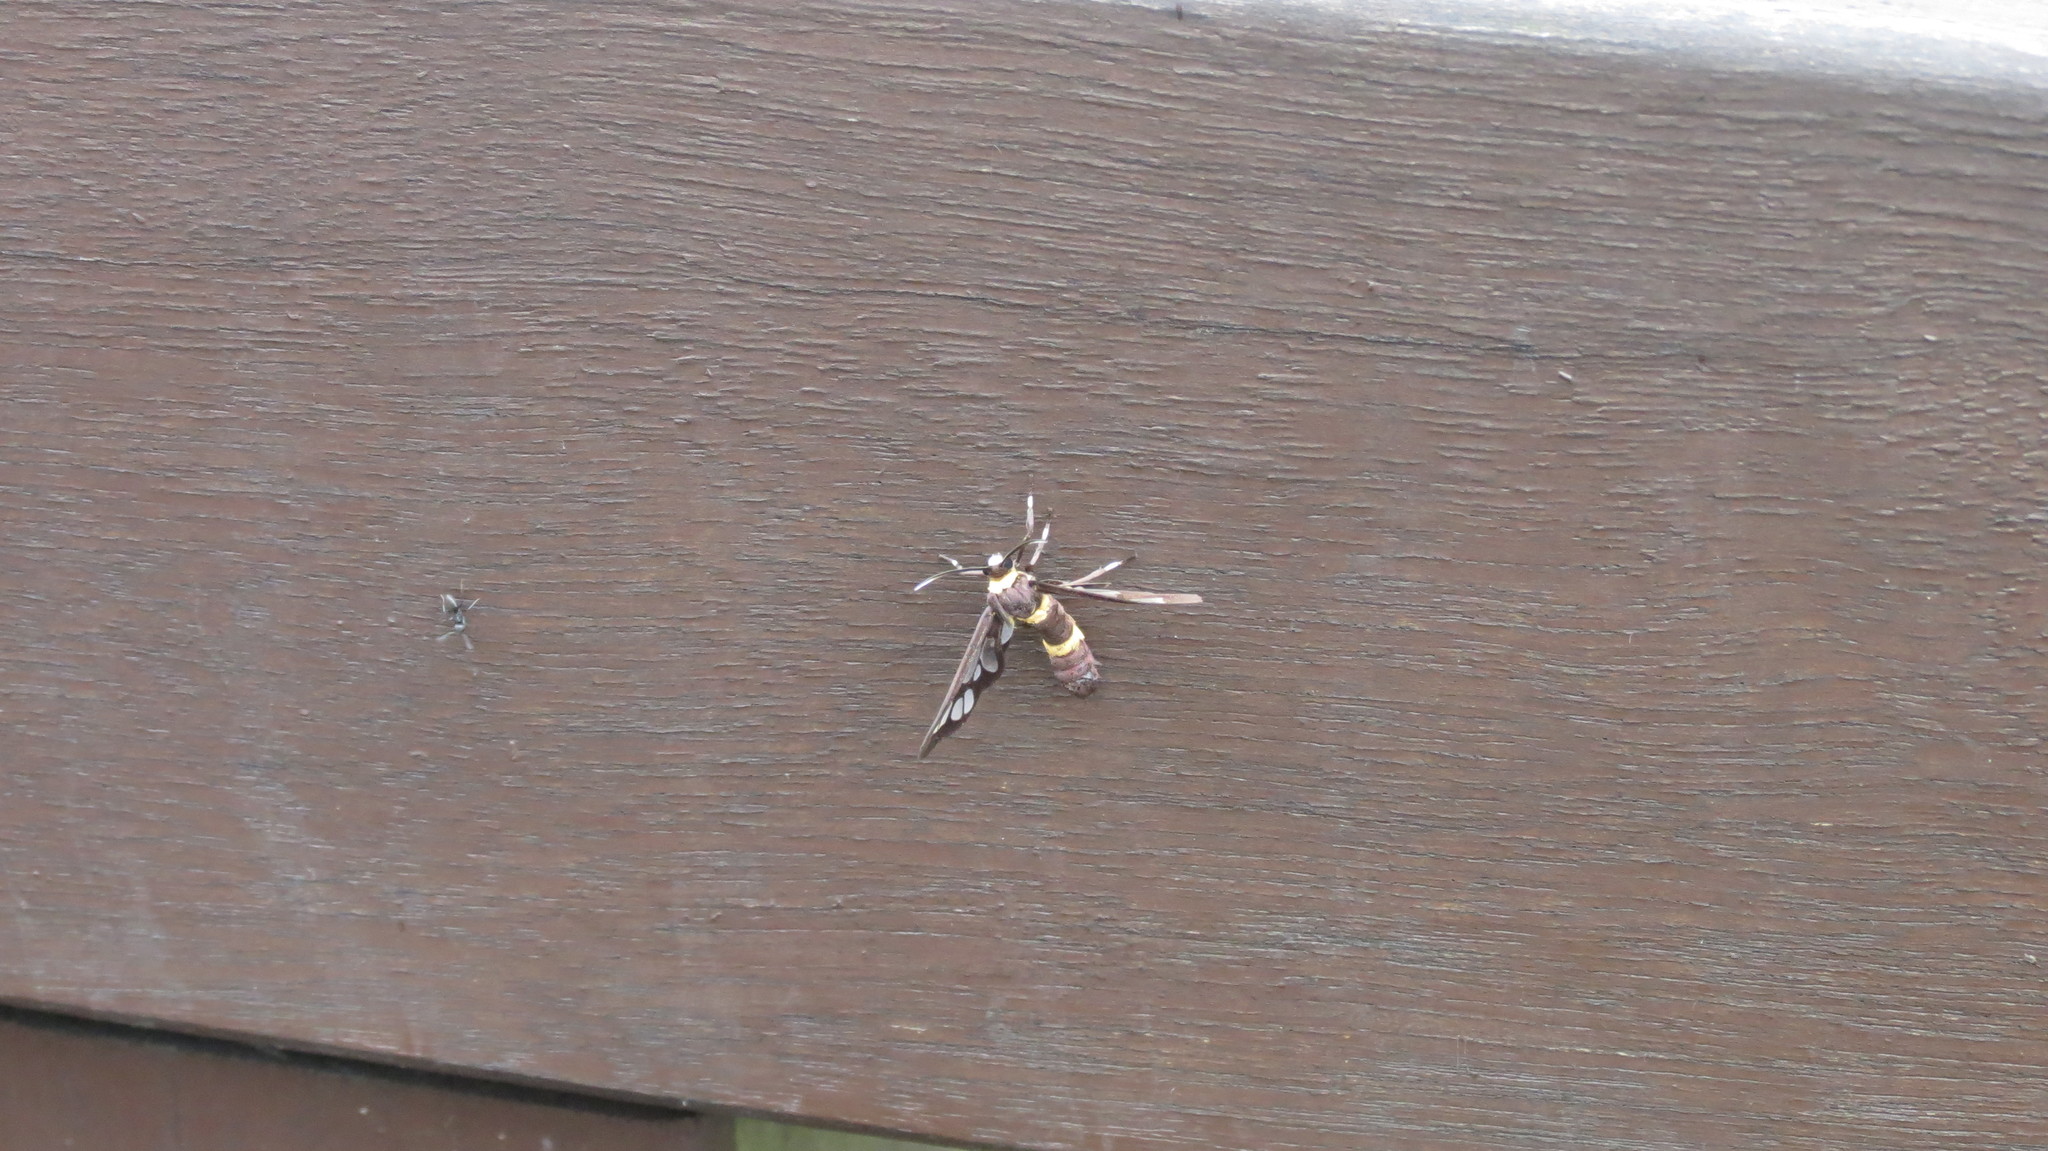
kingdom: Animalia
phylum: Arthropoda
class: Insecta
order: Lepidoptera
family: Erebidae
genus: Syntomoides
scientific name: Syntomoides imaon
